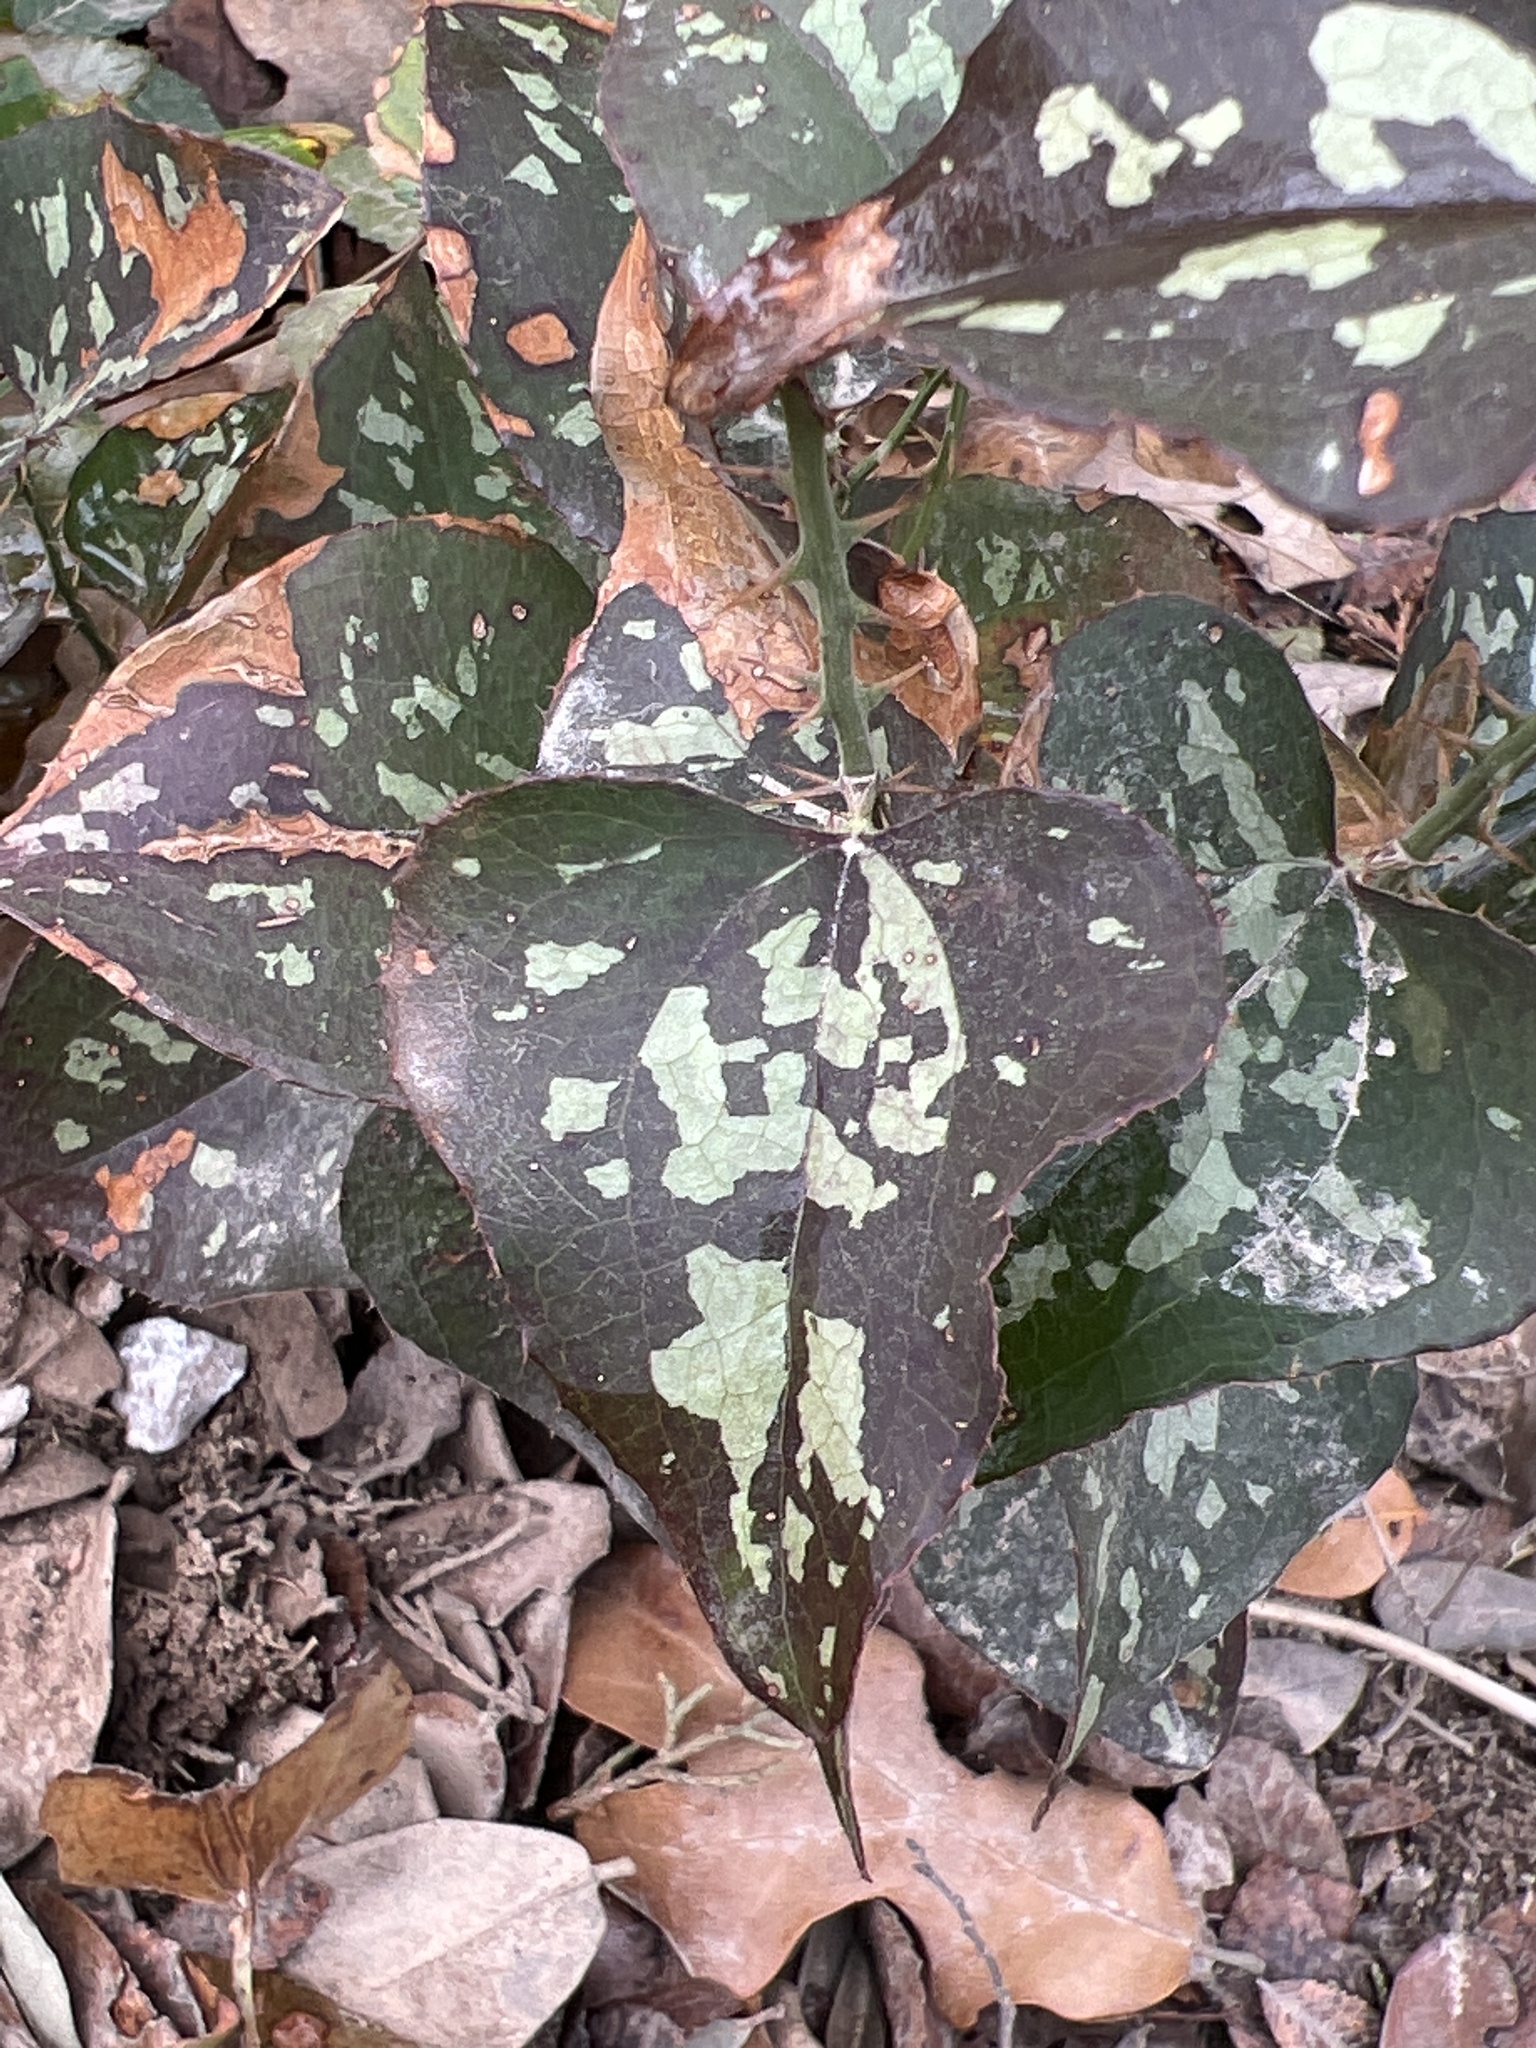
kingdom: Plantae
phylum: Tracheophyta
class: Liliopsida
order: Liliales
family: Smilacaceae
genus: Smilax
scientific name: Smilax bona-nox
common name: Catbrier
